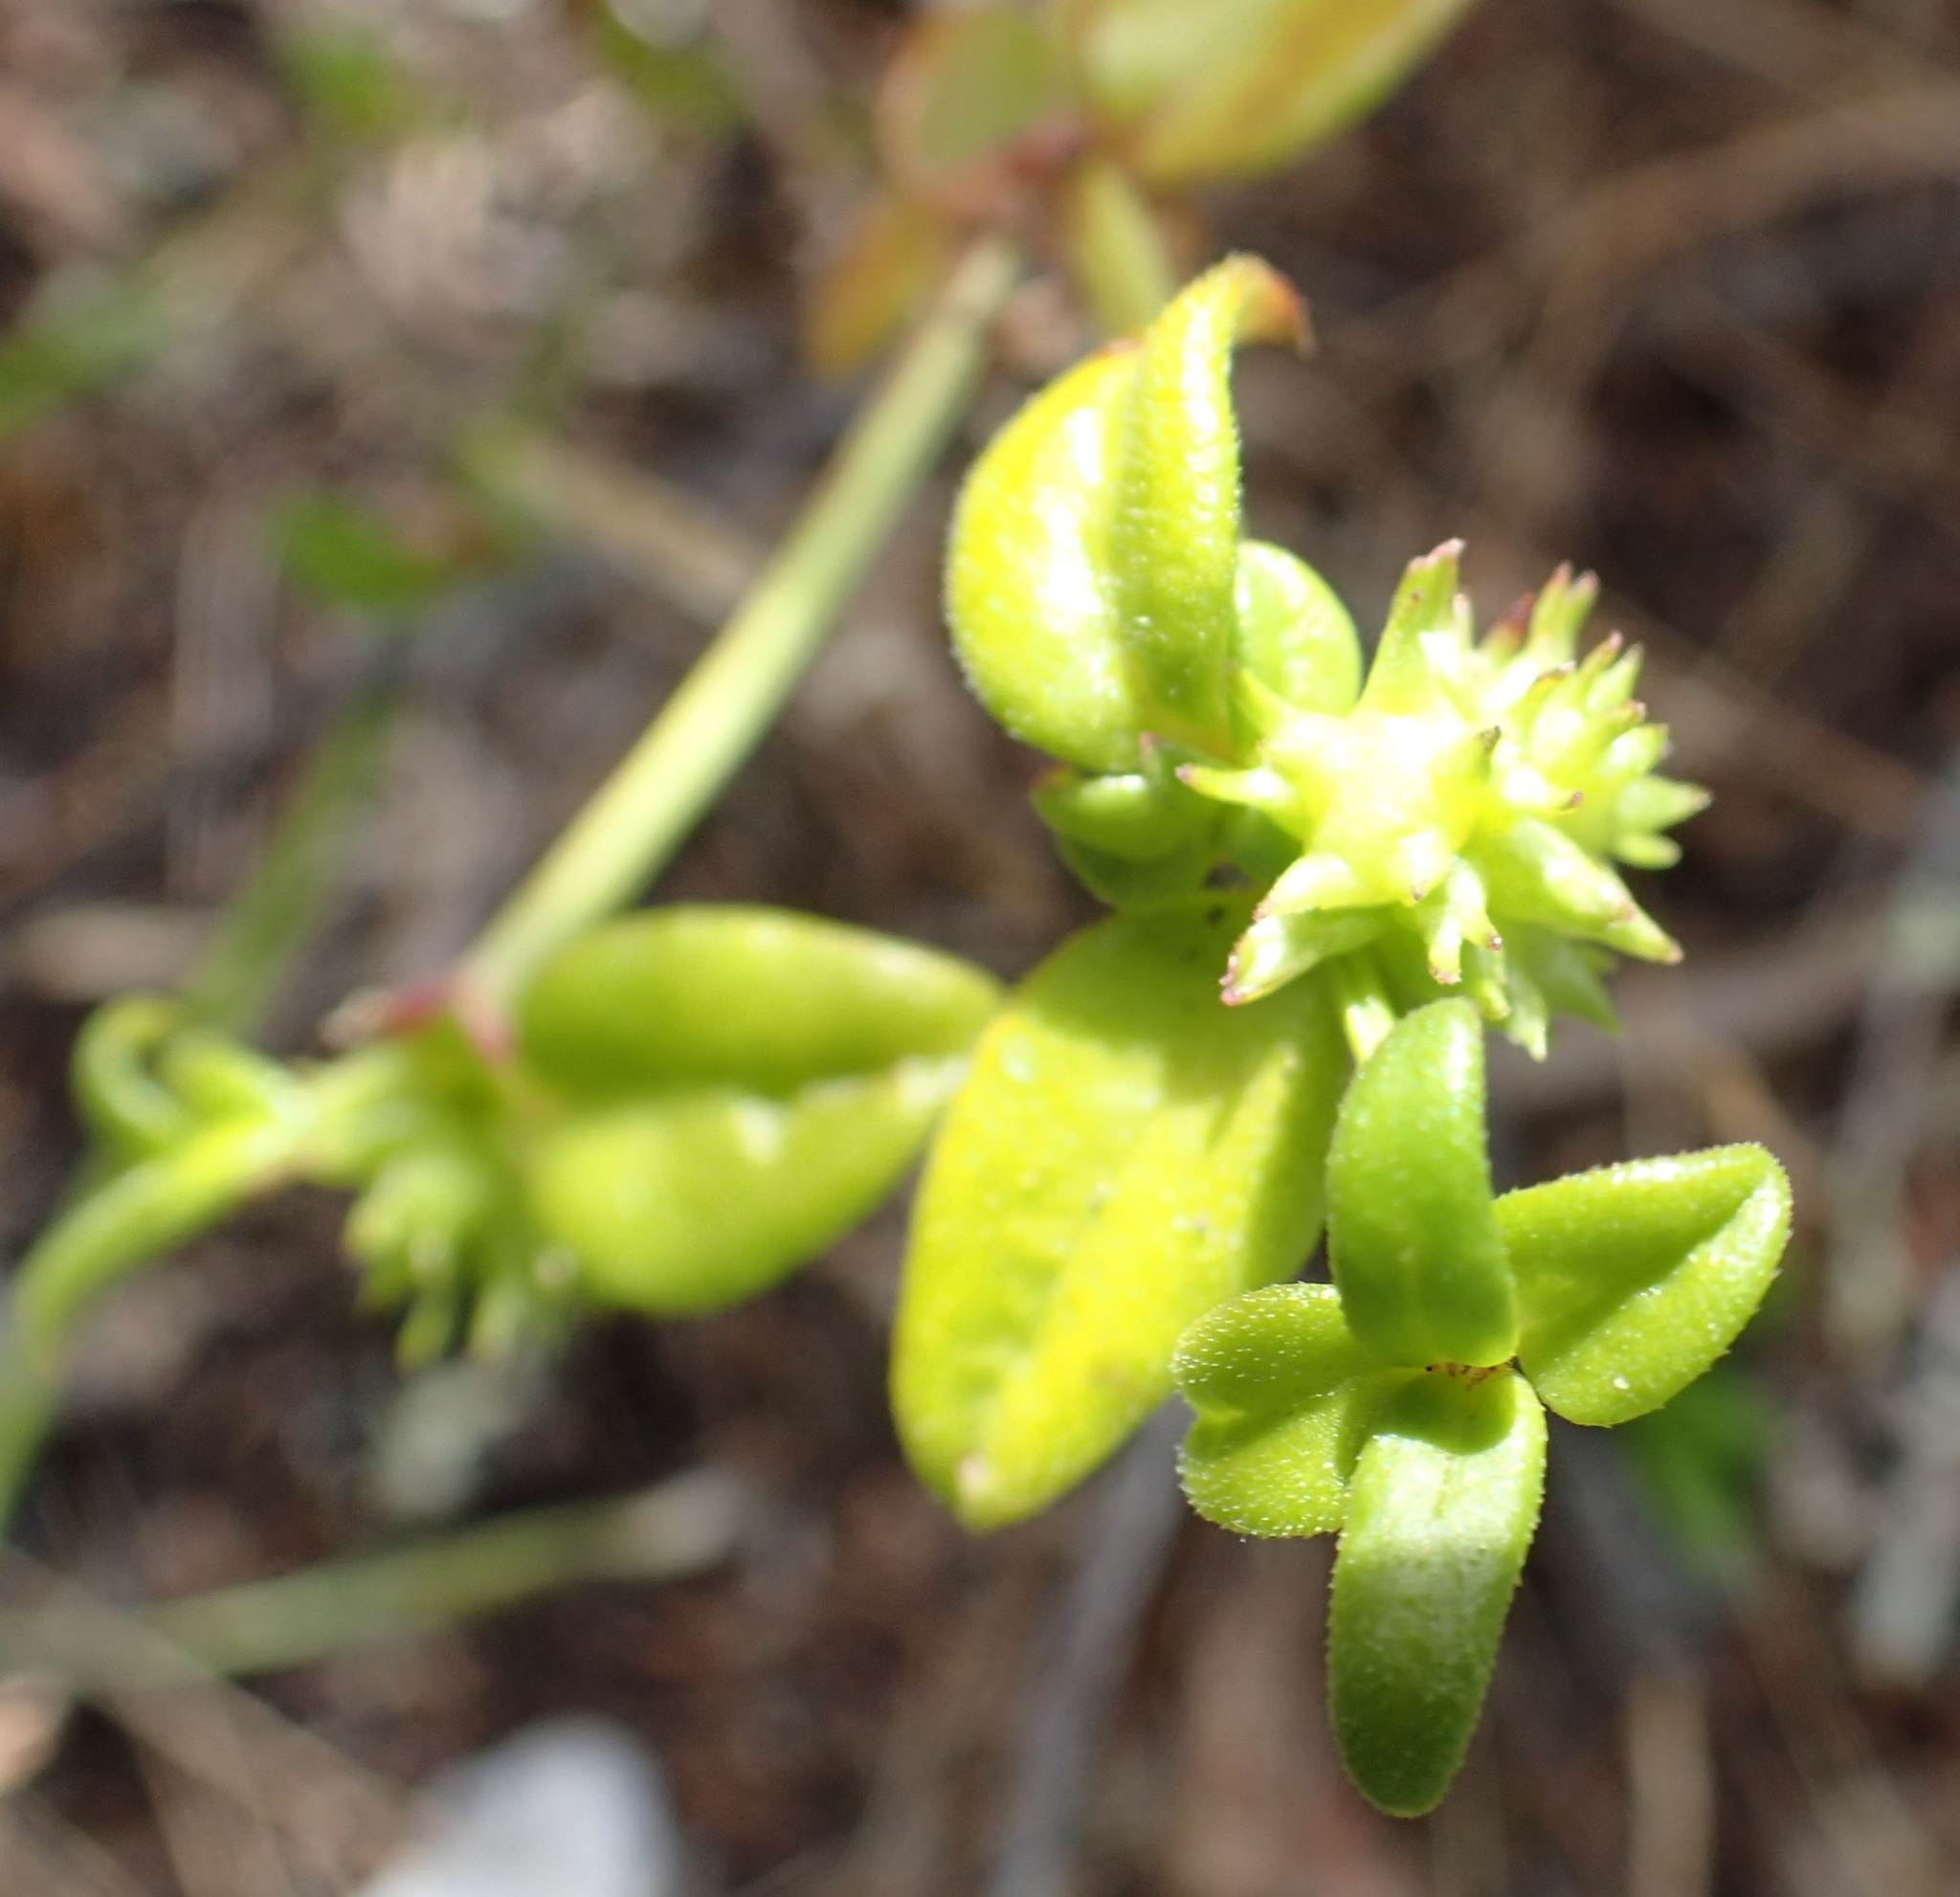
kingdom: Plantae
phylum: Tracheophyta
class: Magnoliopsida
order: Gentianales
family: Rubiaceae
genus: Opercularia
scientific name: Opercularia varia
